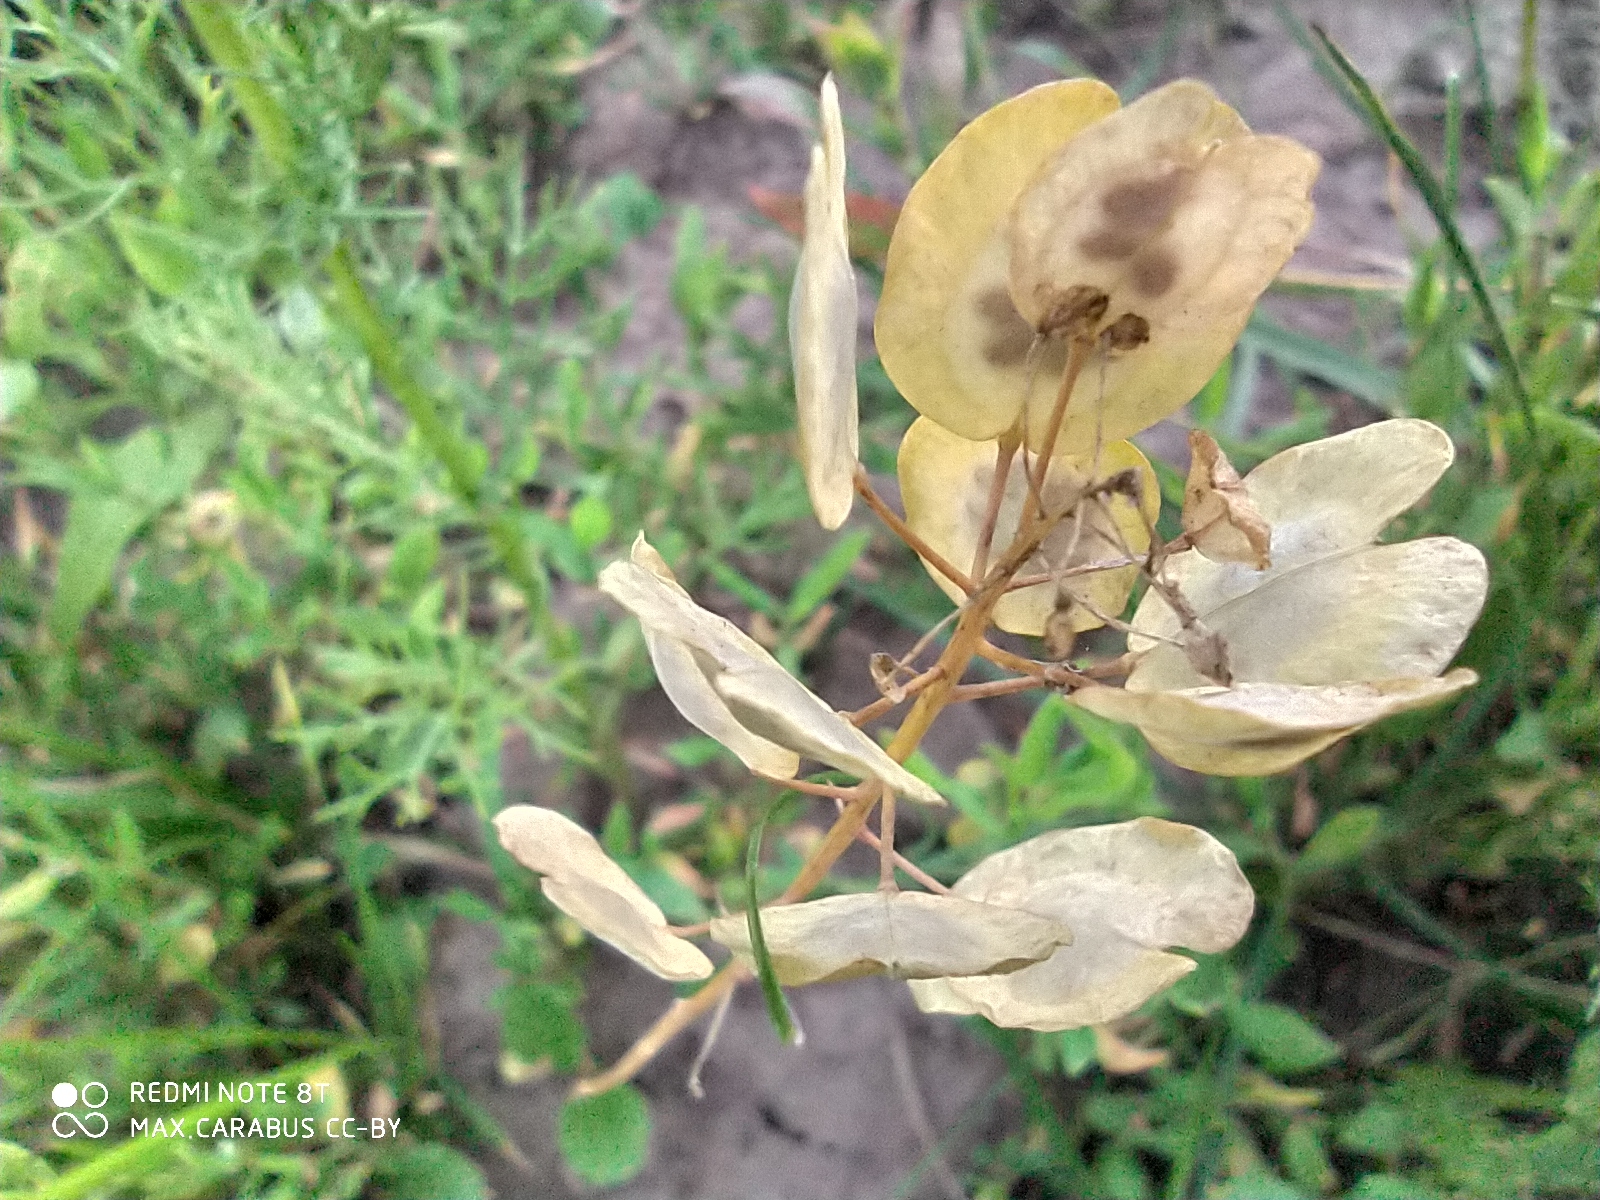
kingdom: Plantae
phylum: Tracheophyta
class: Magnoliopsida
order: Brassicales
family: Brassicaceae
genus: Thlaspi
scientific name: Thlaspi arvense
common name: Field pennycress
